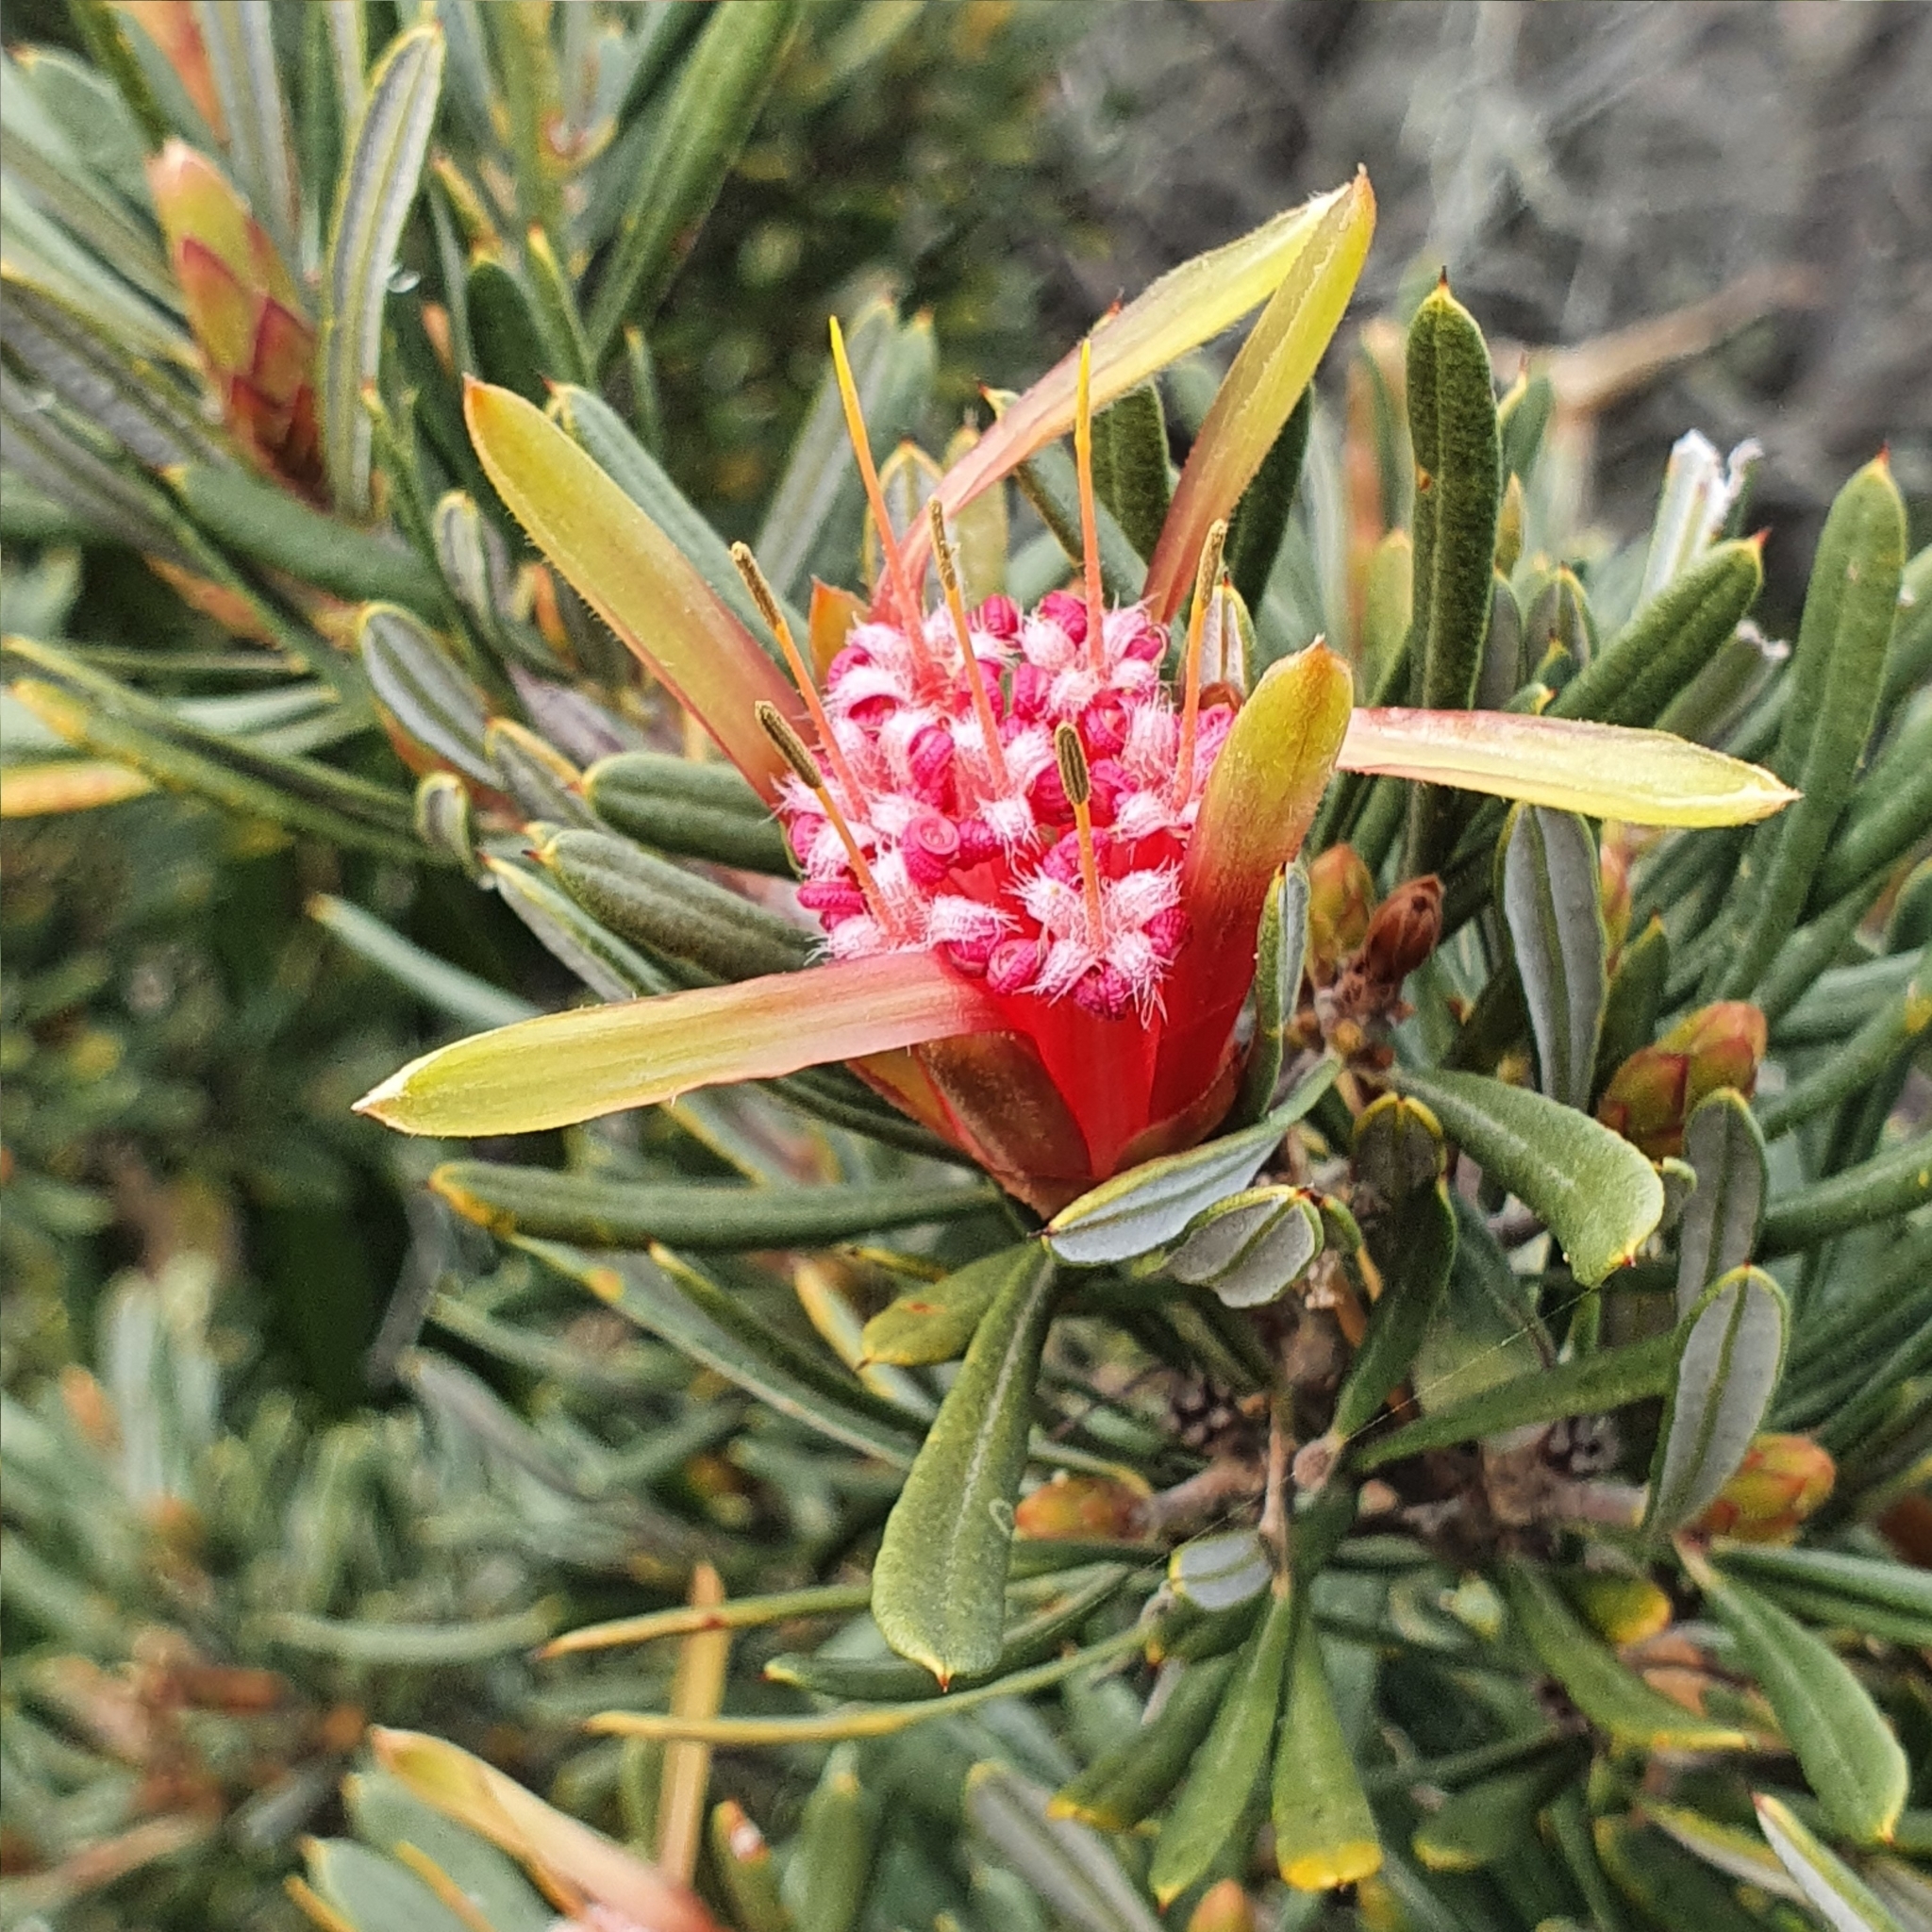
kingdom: Plantae
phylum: Tracheophyta
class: Magnoliopsida
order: Proteales
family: Proteaceae
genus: Lambertia
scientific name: Lambertia formosa
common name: Mountain-devil
